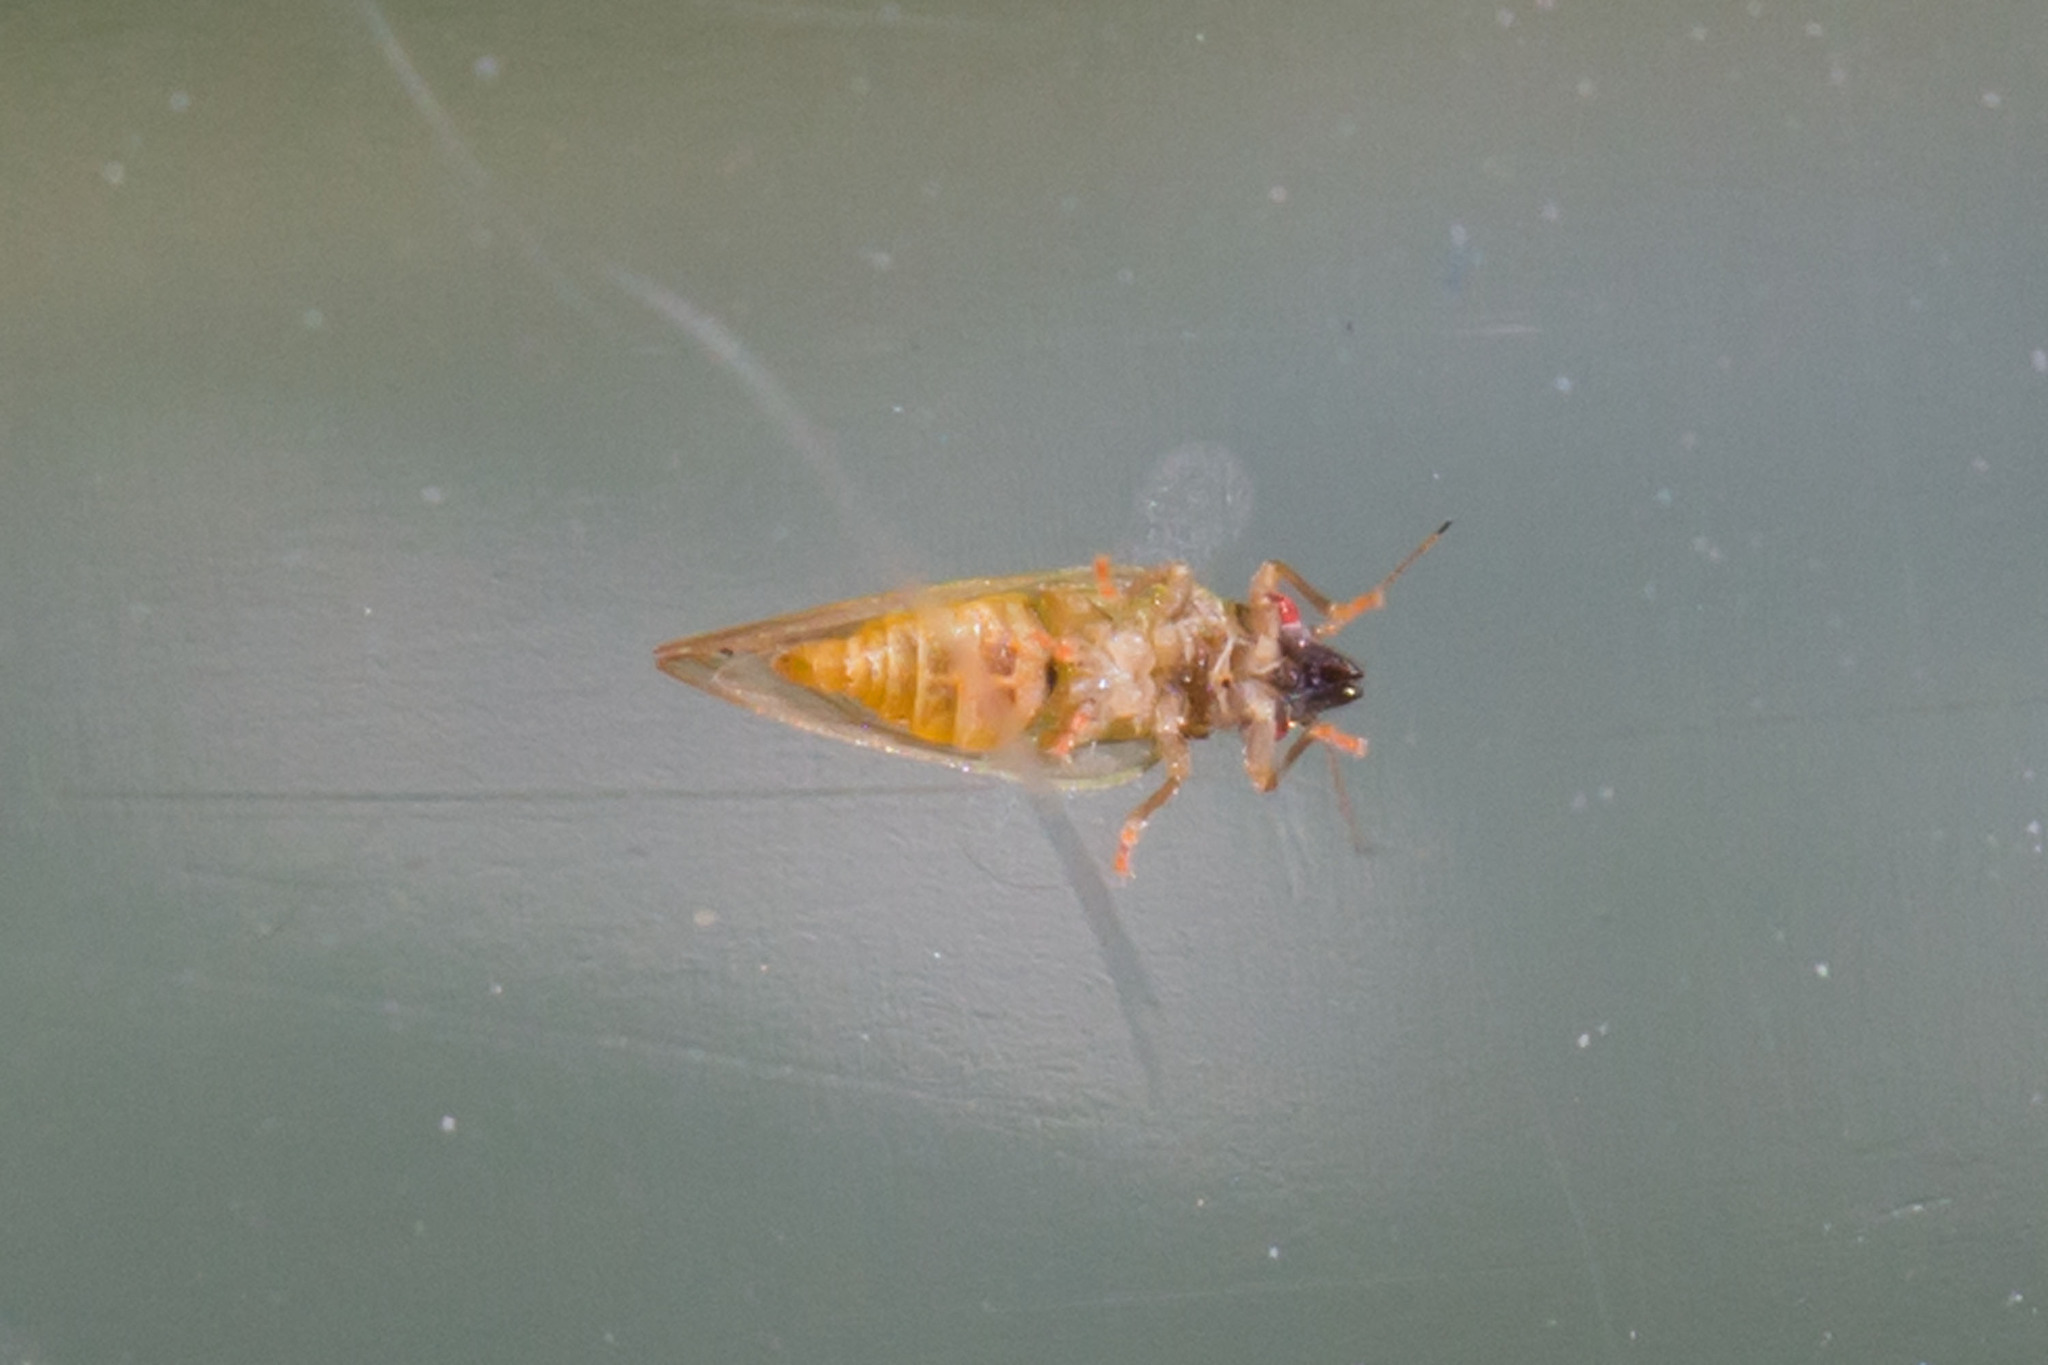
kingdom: Animalia
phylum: Arthropoda
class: Insecta
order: Hemiptera
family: Psyllidae
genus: Spanioneura
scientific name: Spanioneura fonscolombii
